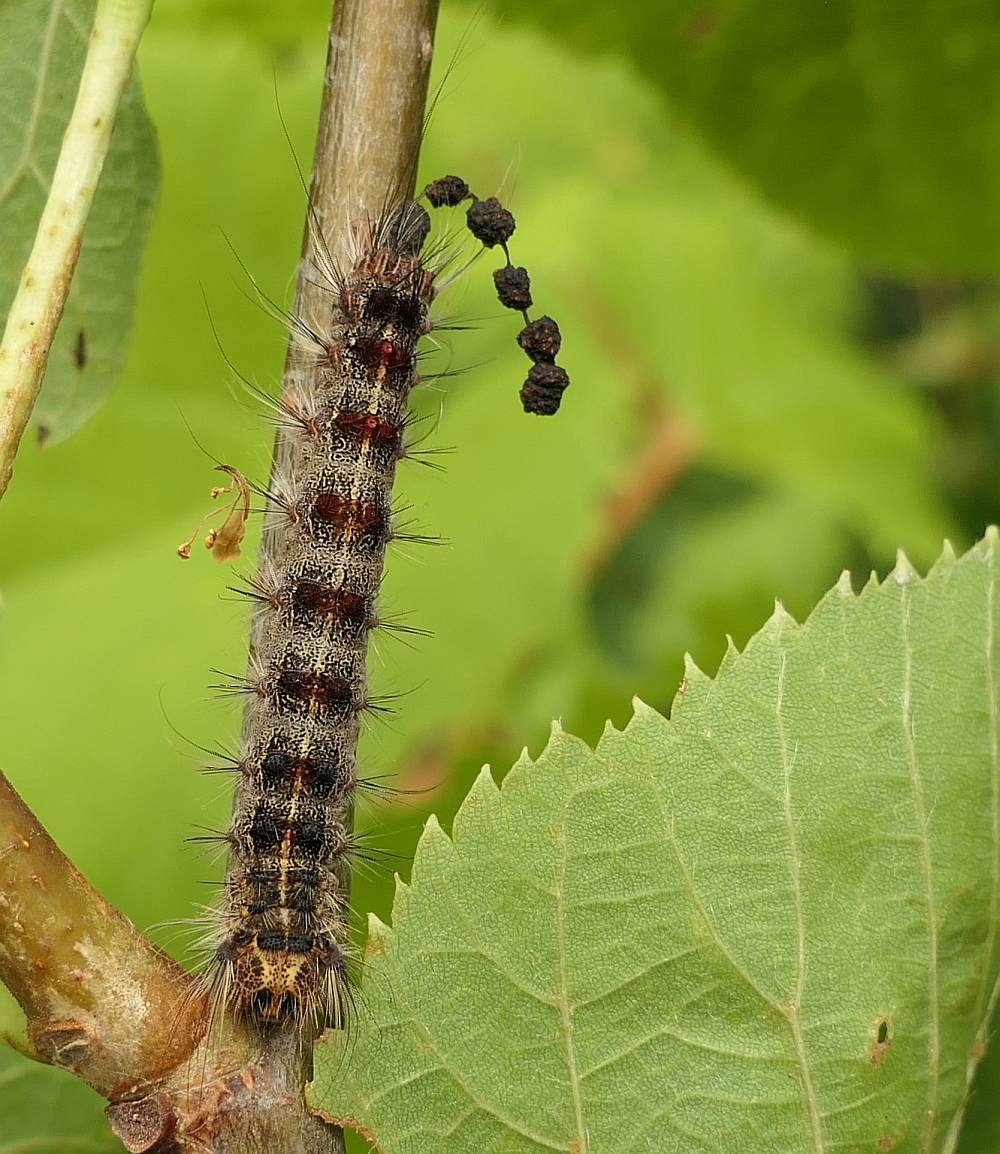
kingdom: Animalia
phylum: Arthropoda
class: Insecta
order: Lepidoptera
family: Erebidae
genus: Lymantria
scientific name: Lymantria dispar
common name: Gypsy moth
